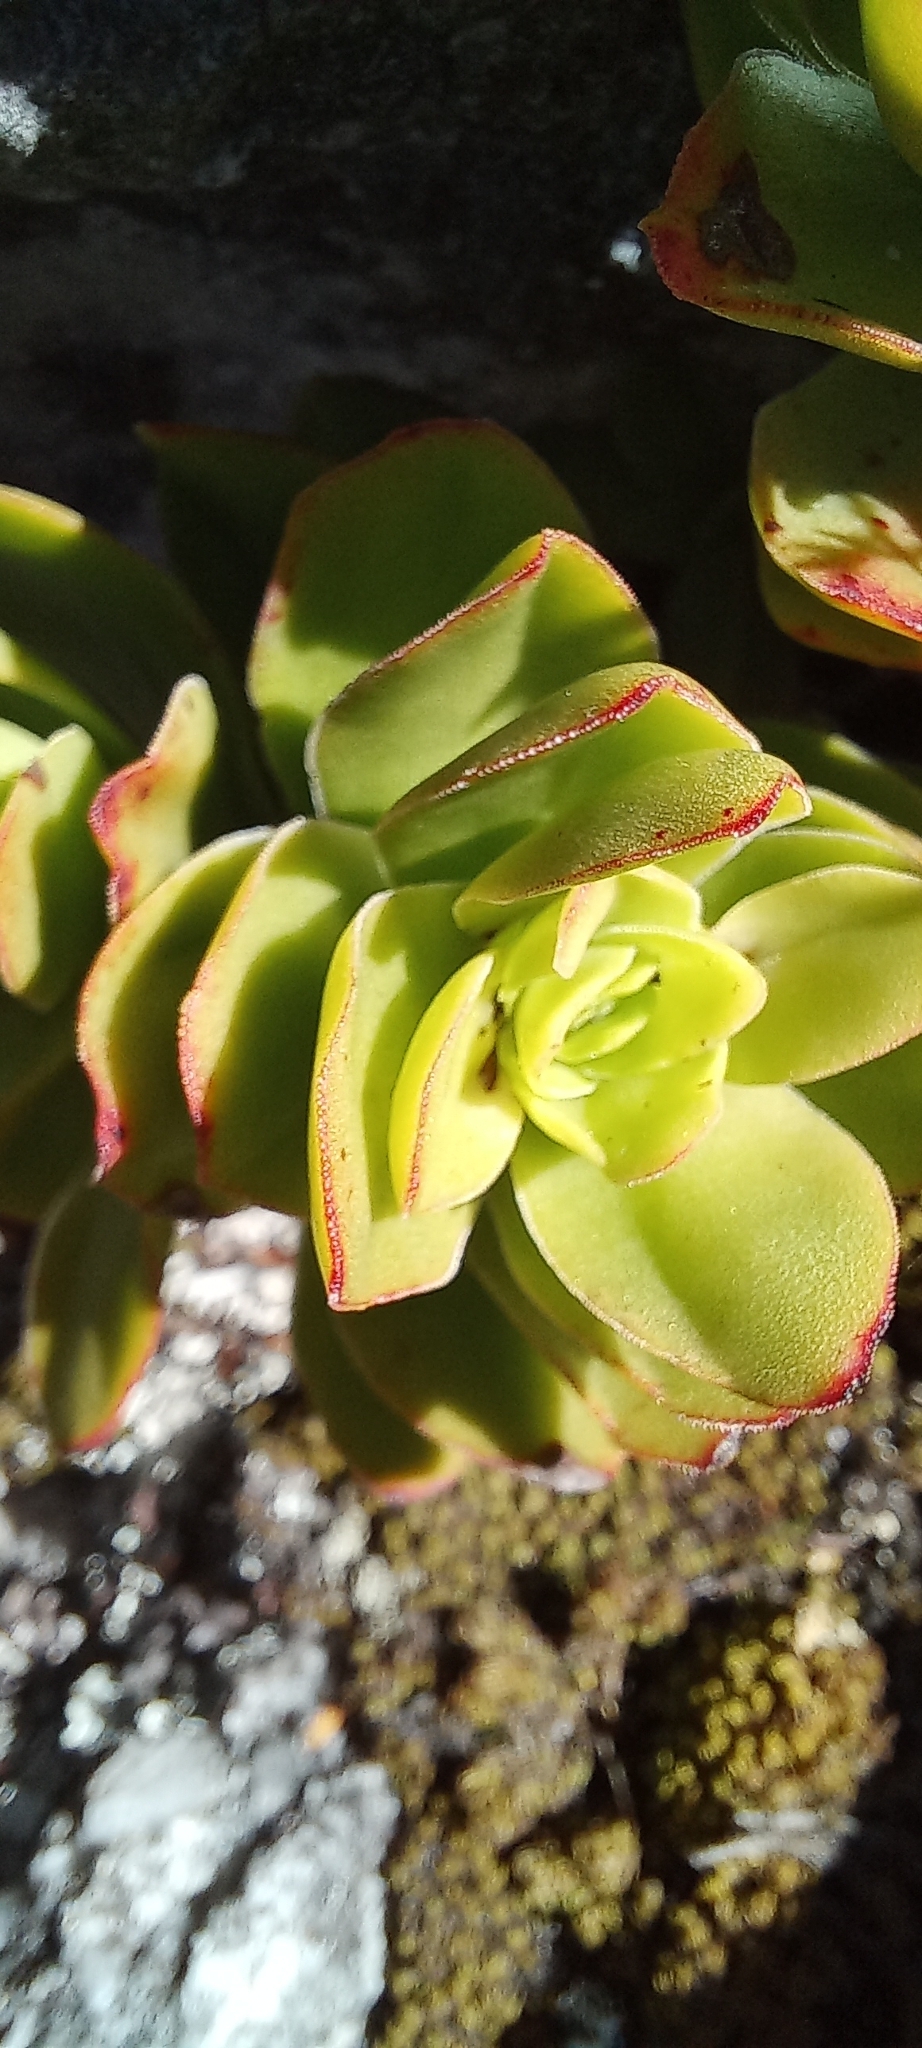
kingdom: Plantae
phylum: Tracheophyta
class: Magnoliopsida
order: Saxifragales
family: Crassulaceae
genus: Crassula
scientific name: Crassula coccinea
